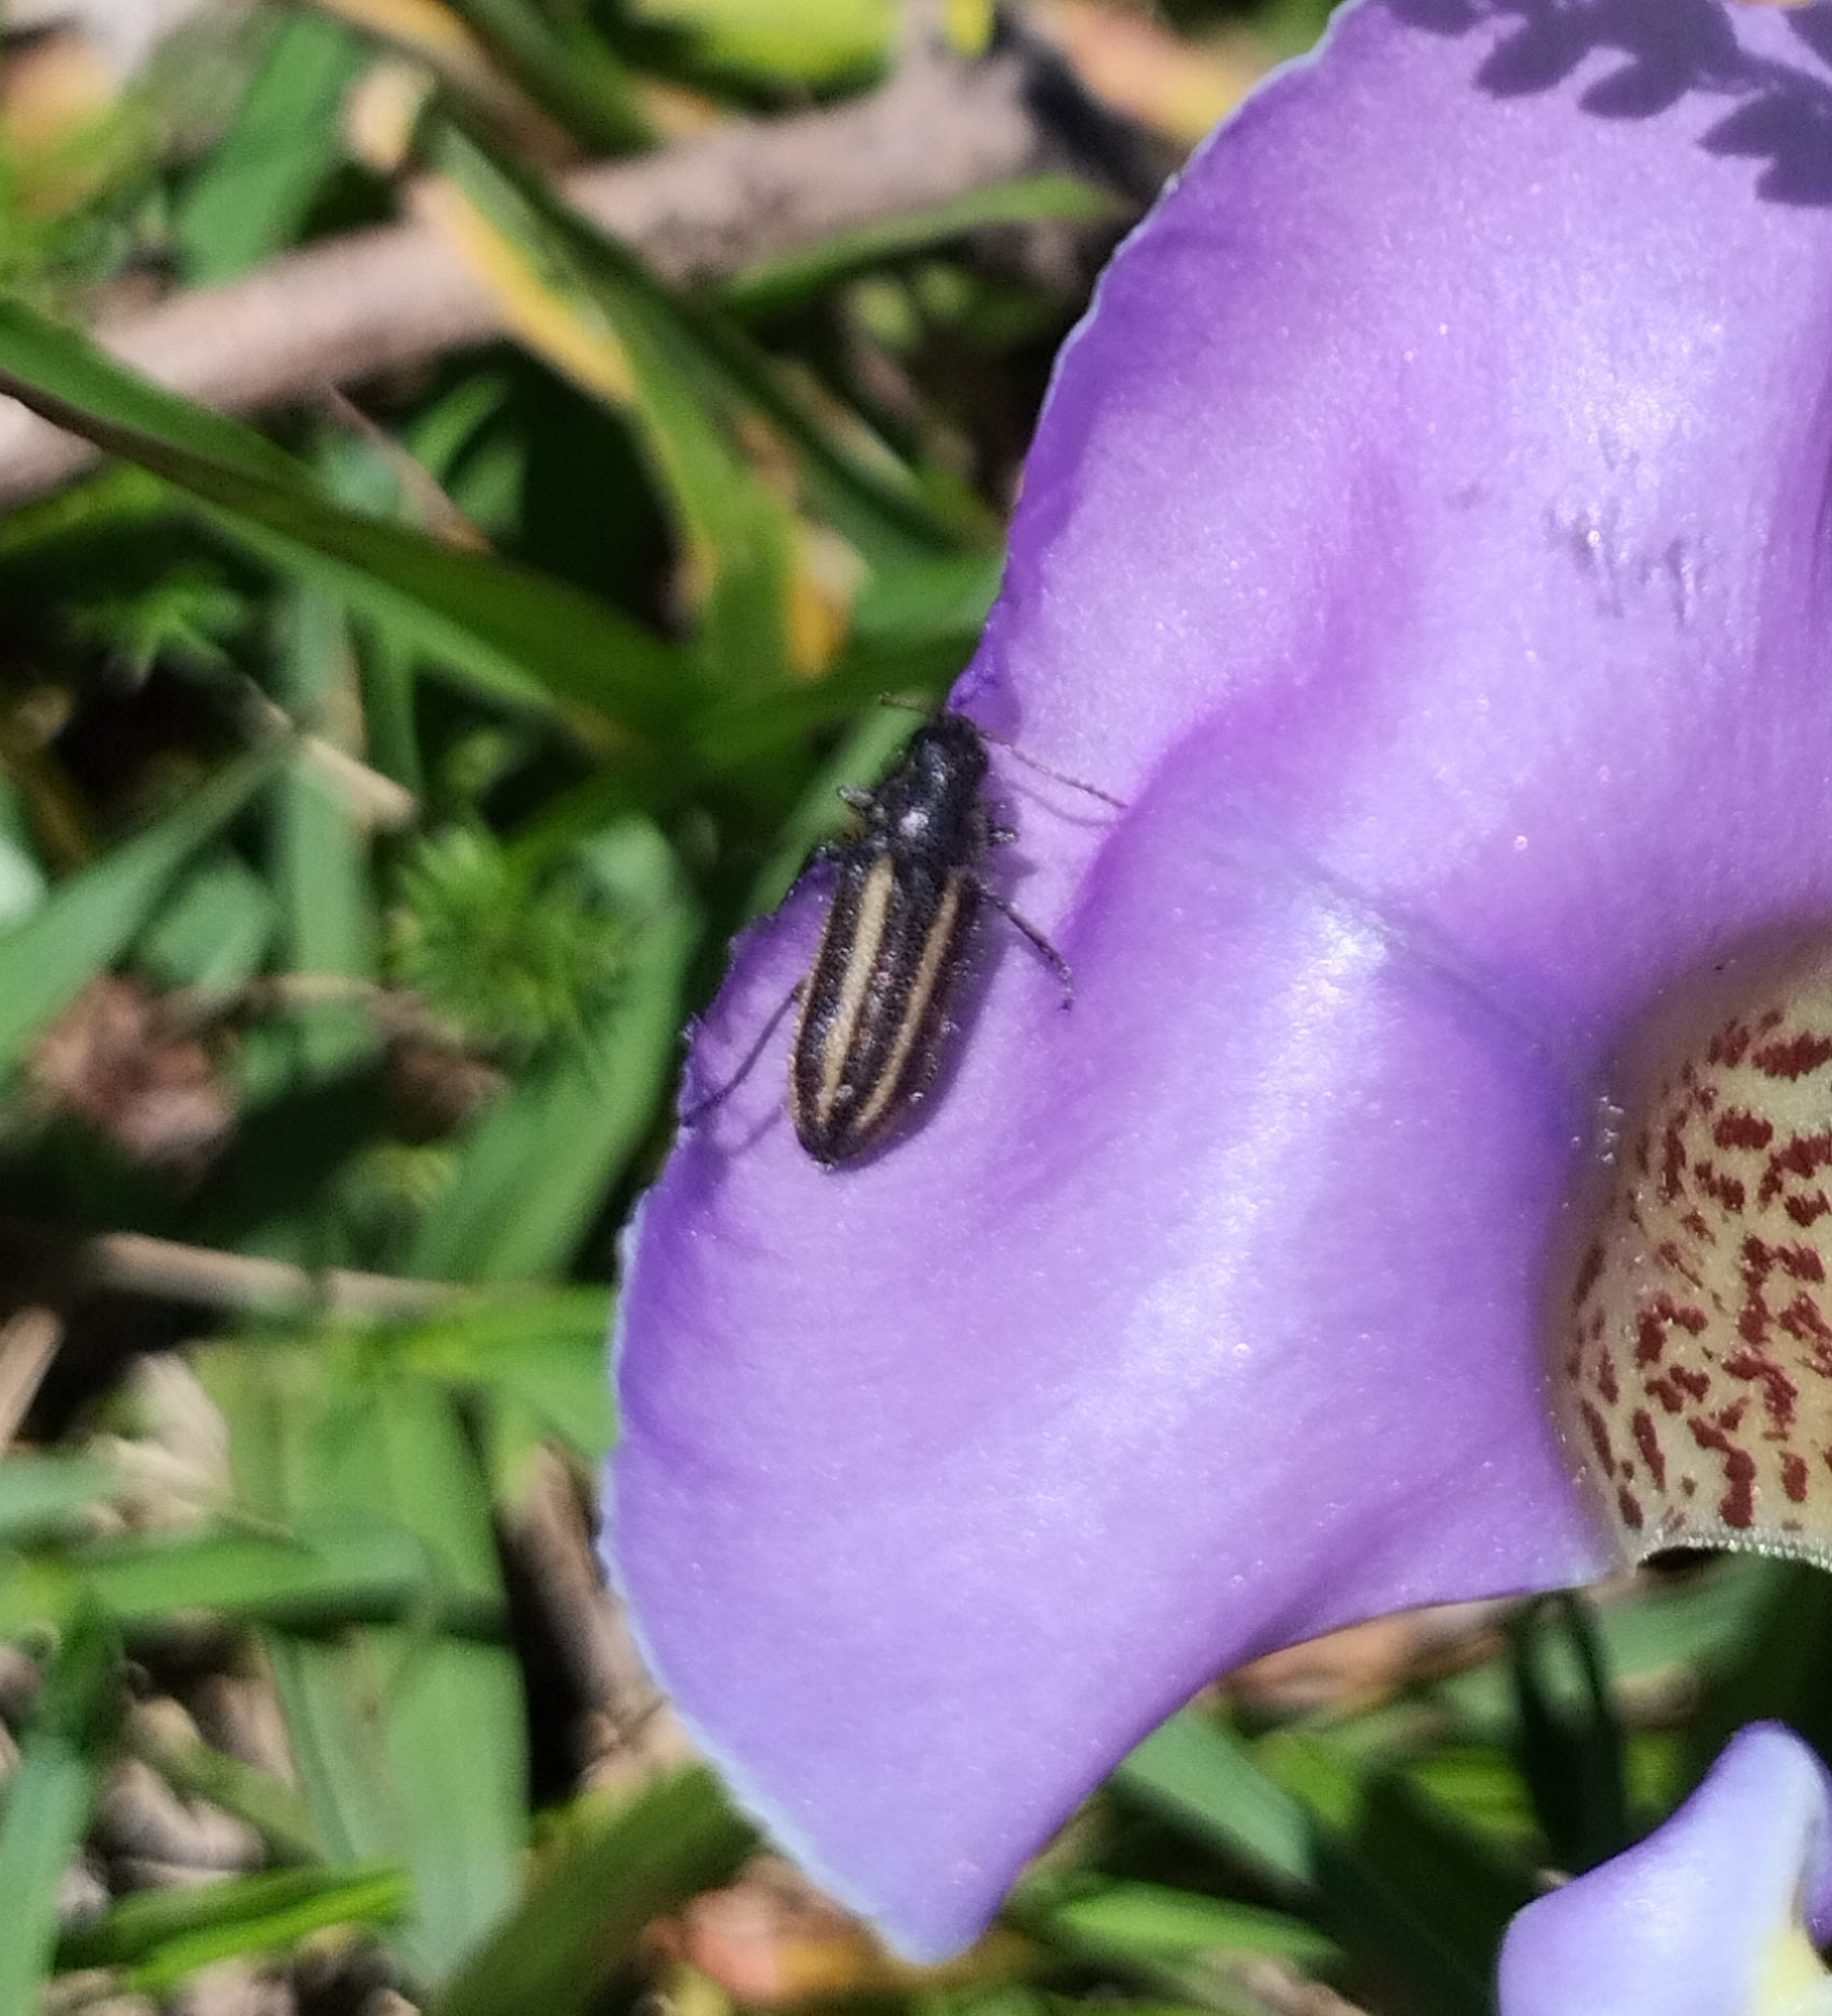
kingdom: Animalia
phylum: Arthropoda
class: Insecta
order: Coleoptera
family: Melyridae
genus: Astylus
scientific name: Astylus
